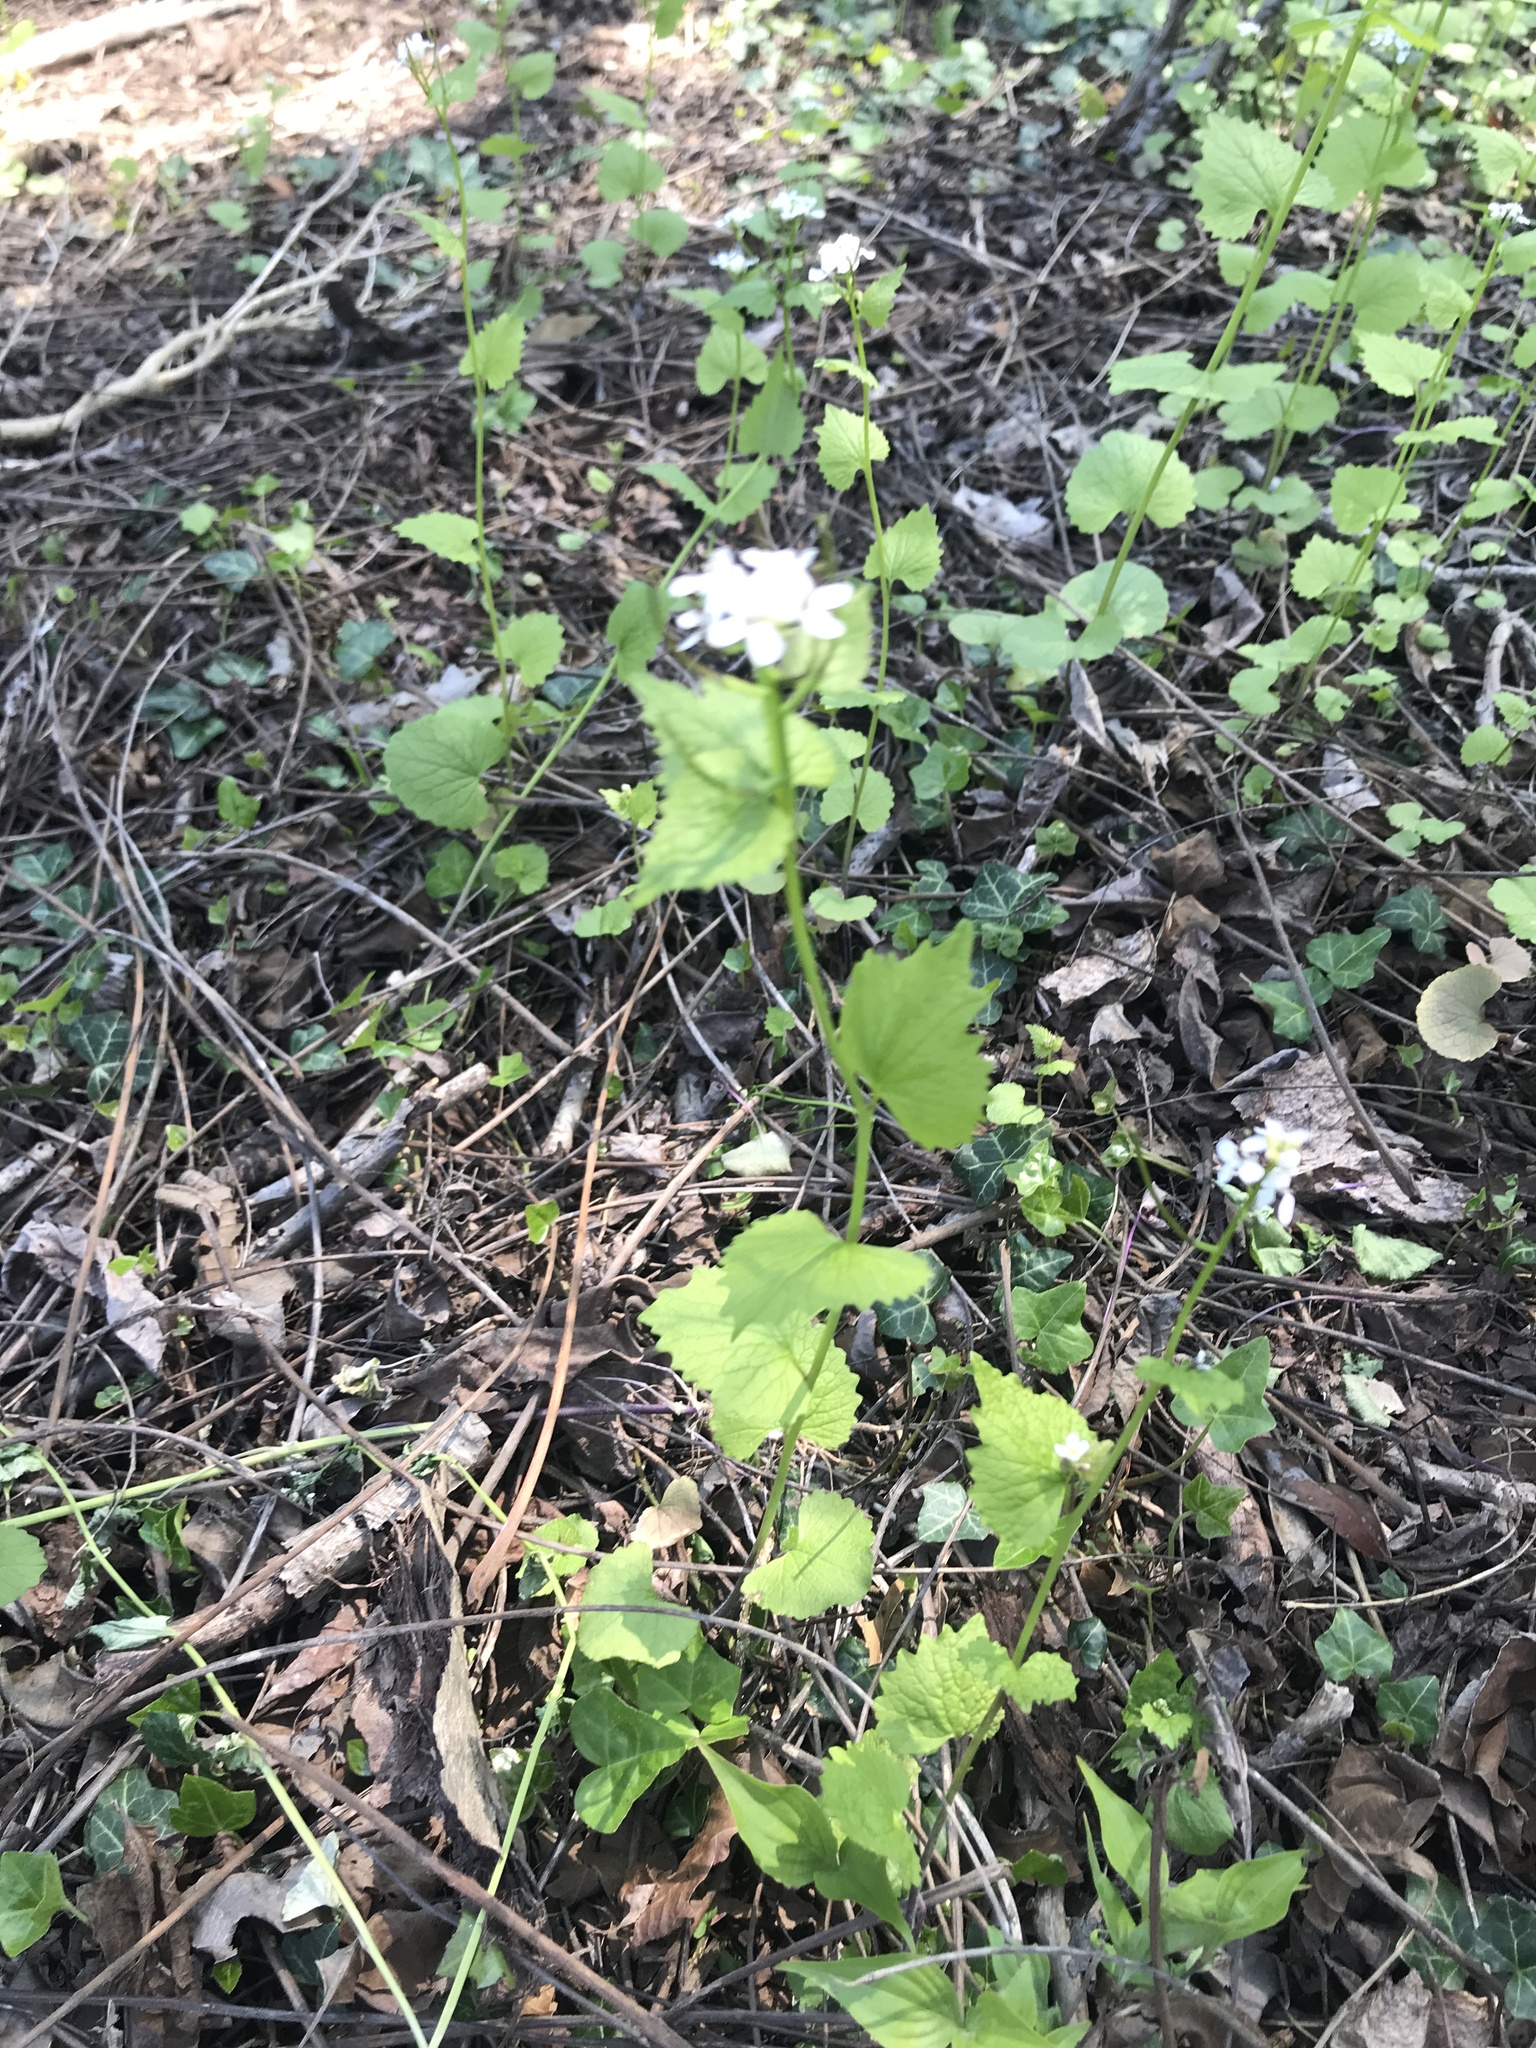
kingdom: Plantae
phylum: Tracheophyta
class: Magnoliopsida
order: Brassicales
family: Brassicaceae
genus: Alliaria
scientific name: Alliaria petiolata
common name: Garlic mustard
